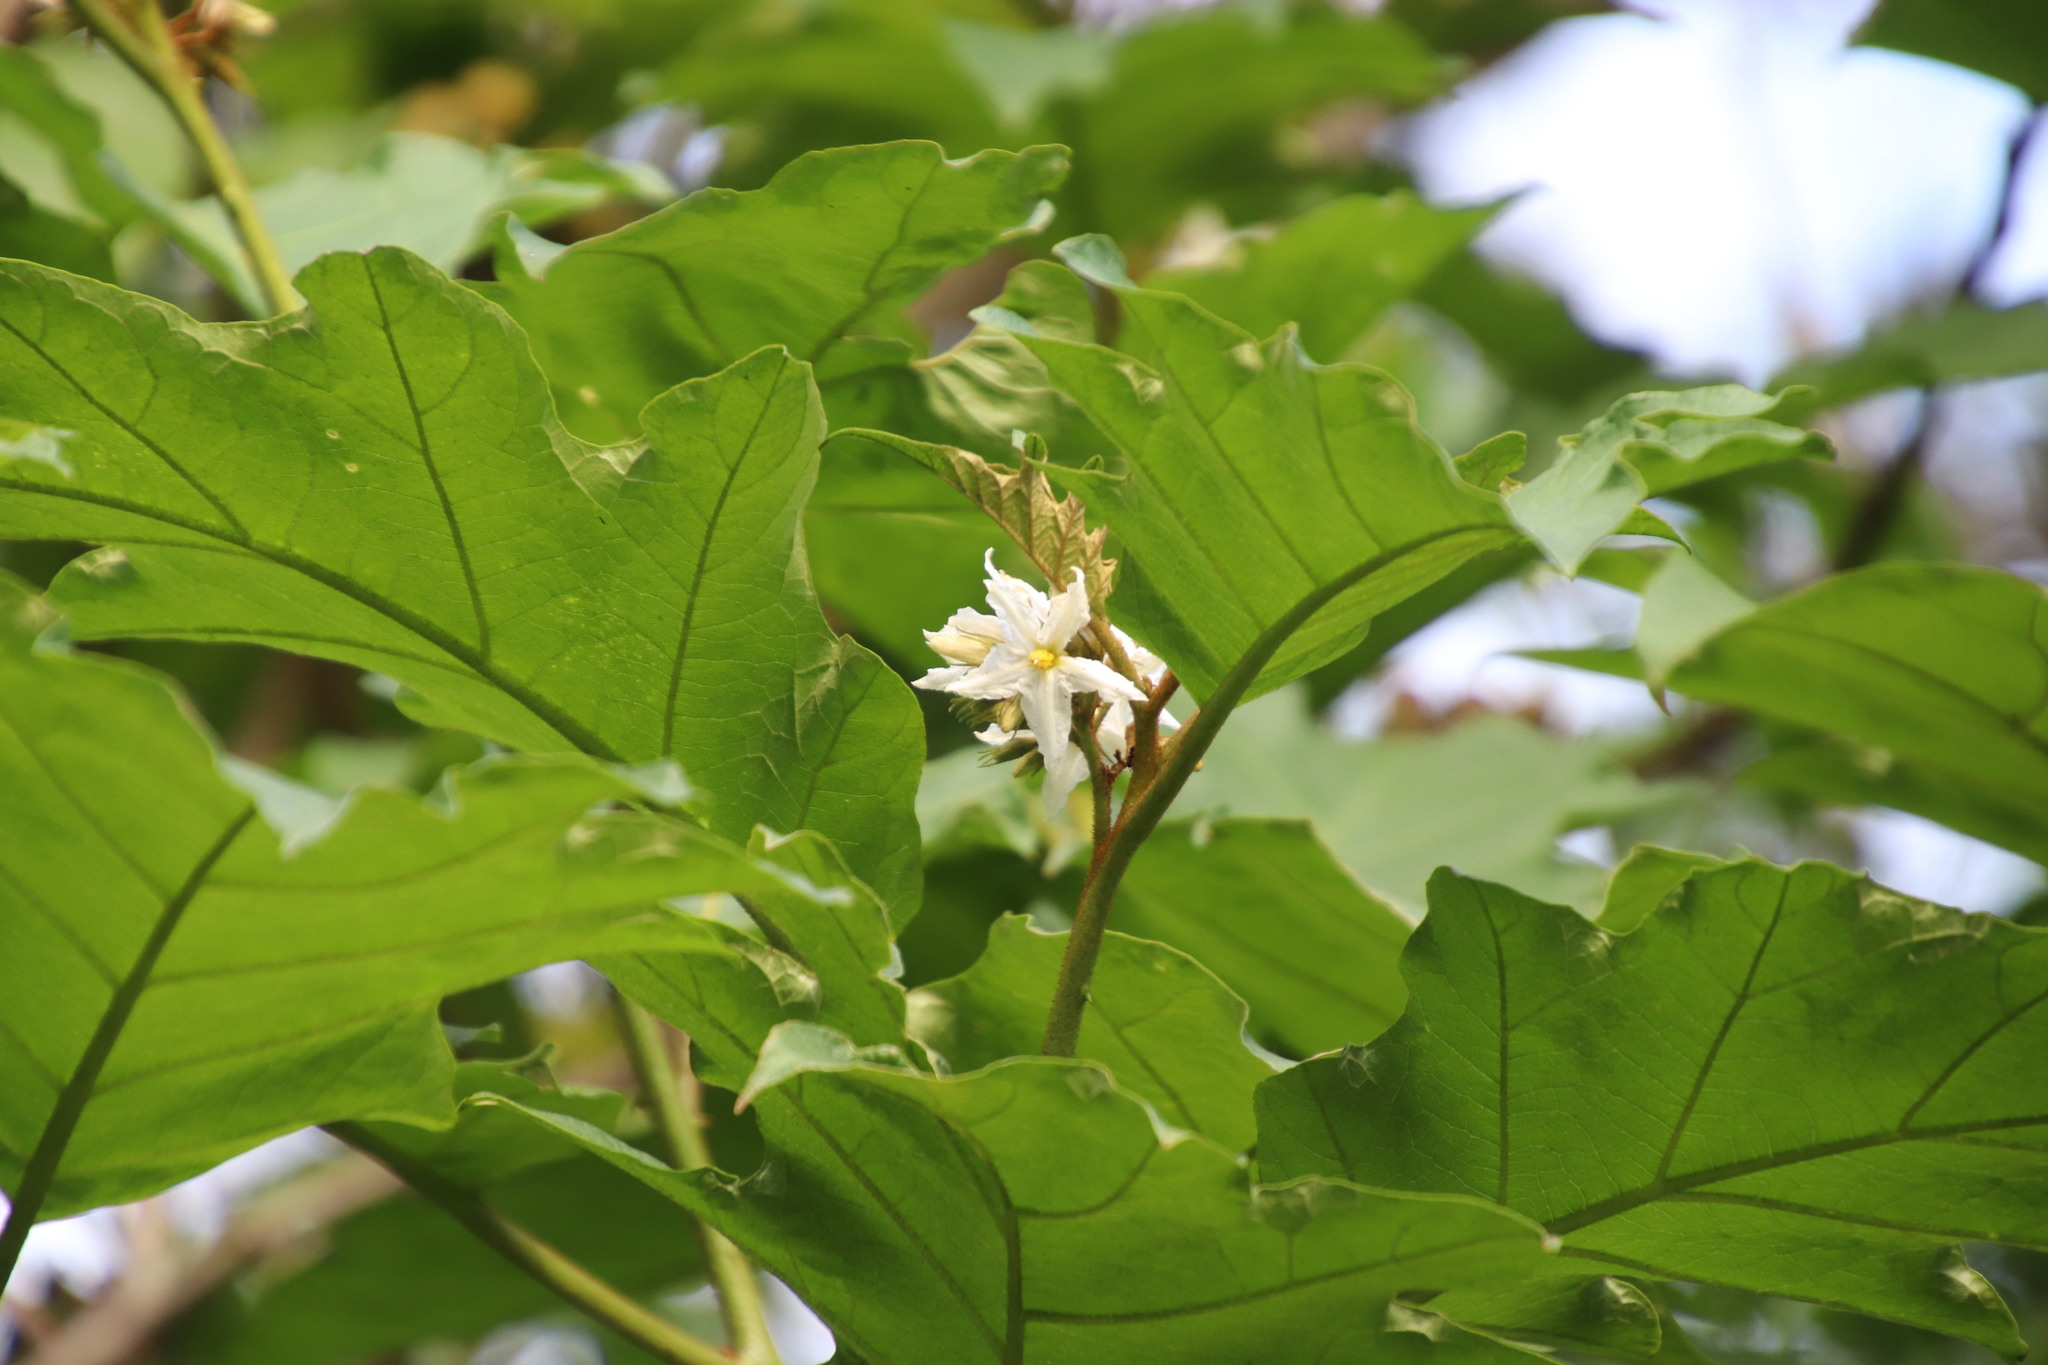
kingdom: Plantae
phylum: Tracheophyta
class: Magnoliopsida
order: Solanales
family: Solanaceae
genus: Solanum
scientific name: Solanum chrysotrichum
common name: Nightshade
